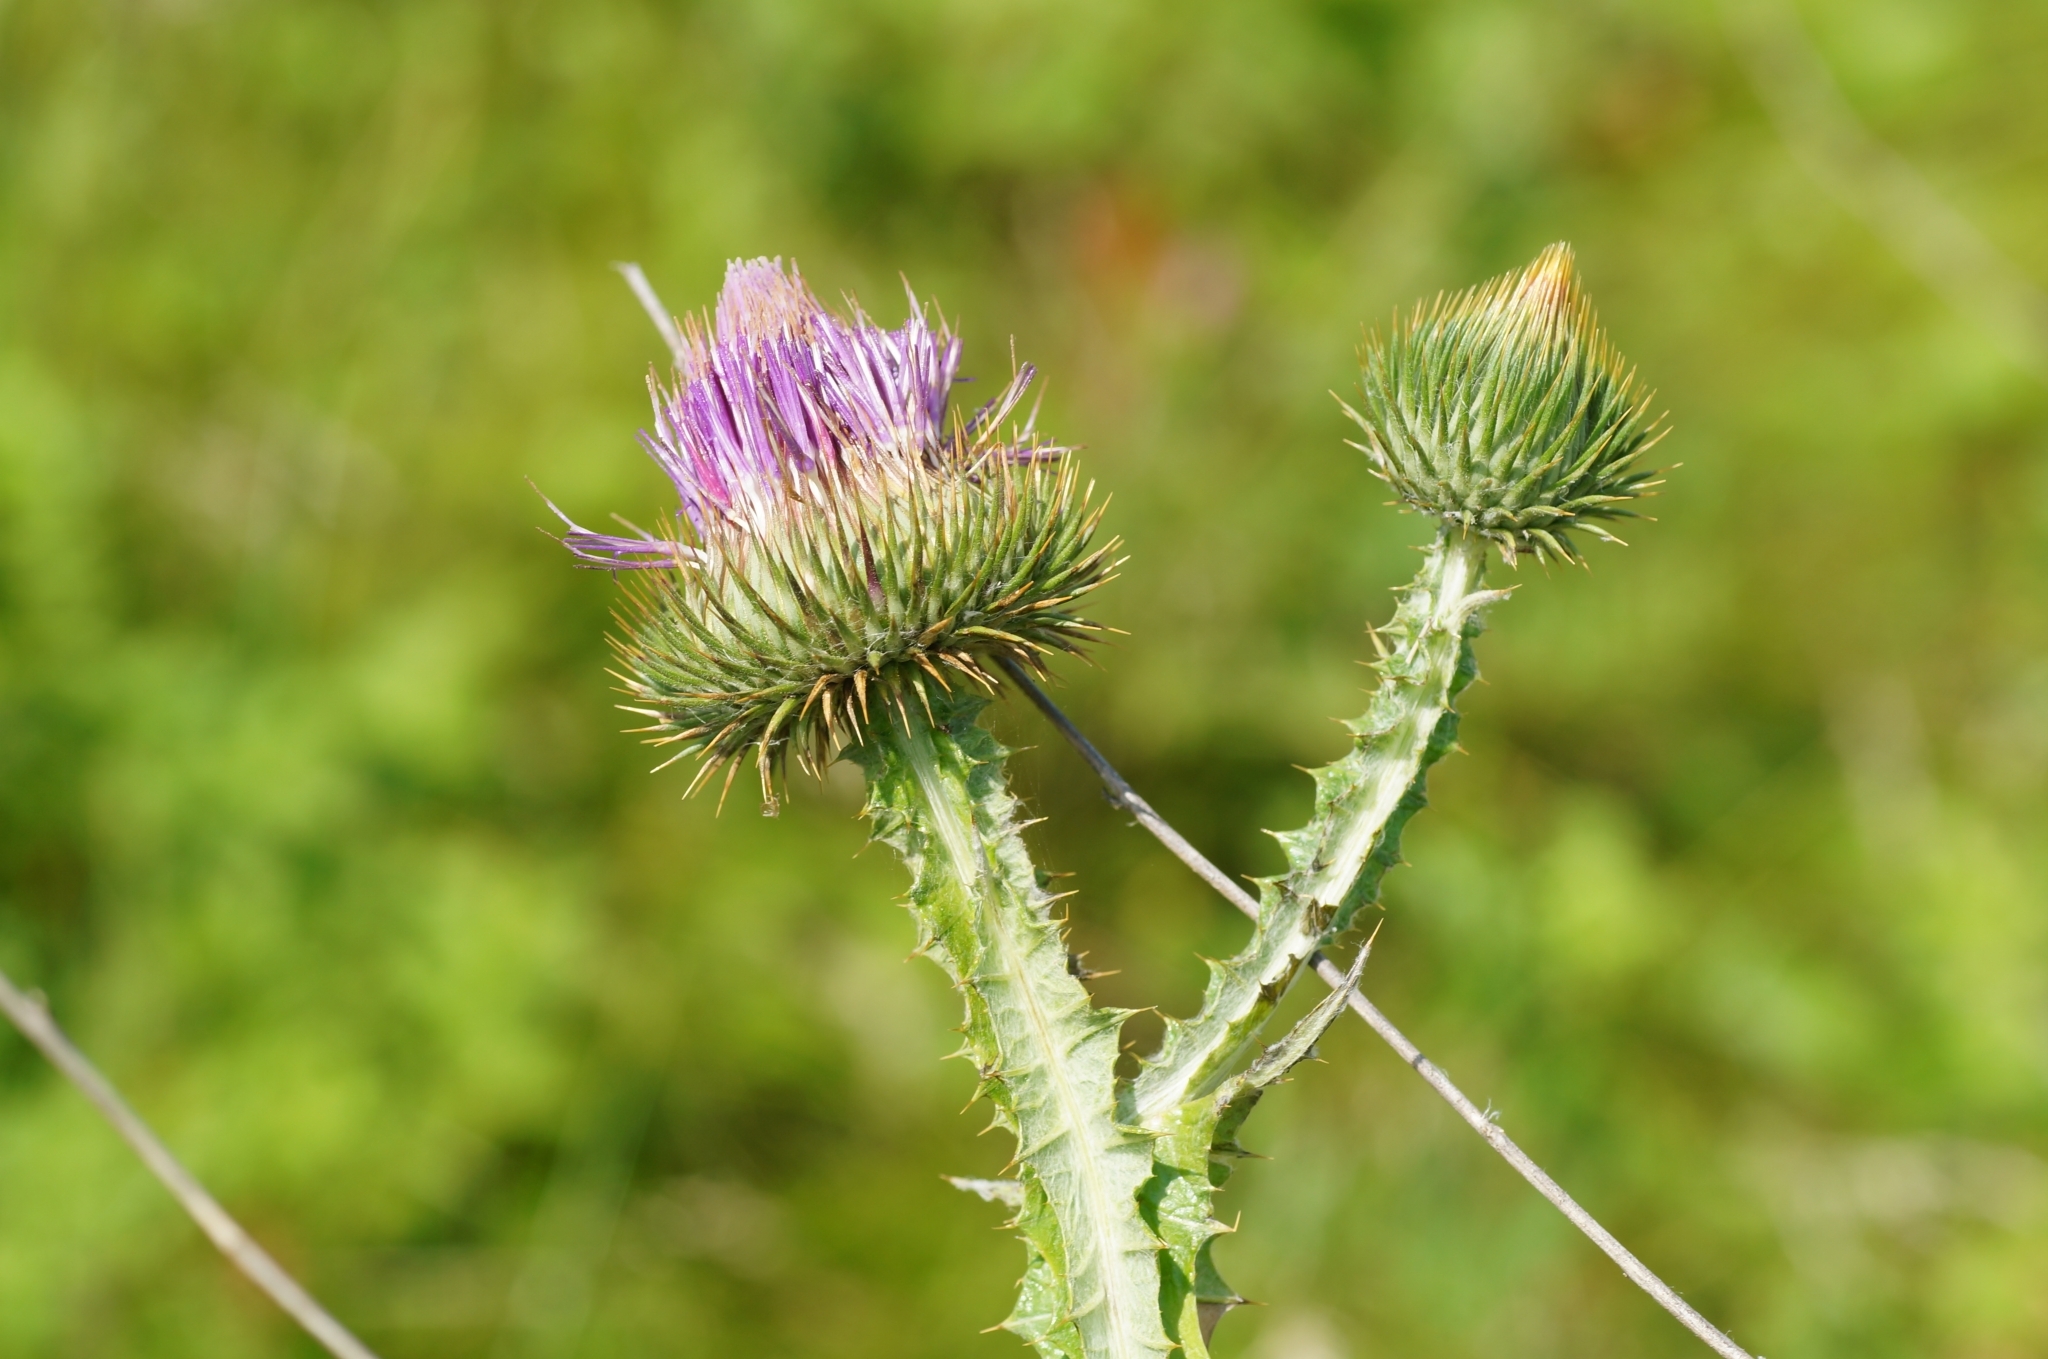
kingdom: Plantae
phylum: Tracheophyta
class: Magnoliopsida
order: Asterales
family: Asteraceae
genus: Onopordum
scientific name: Onopordum acanthium
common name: Scotch thistle
